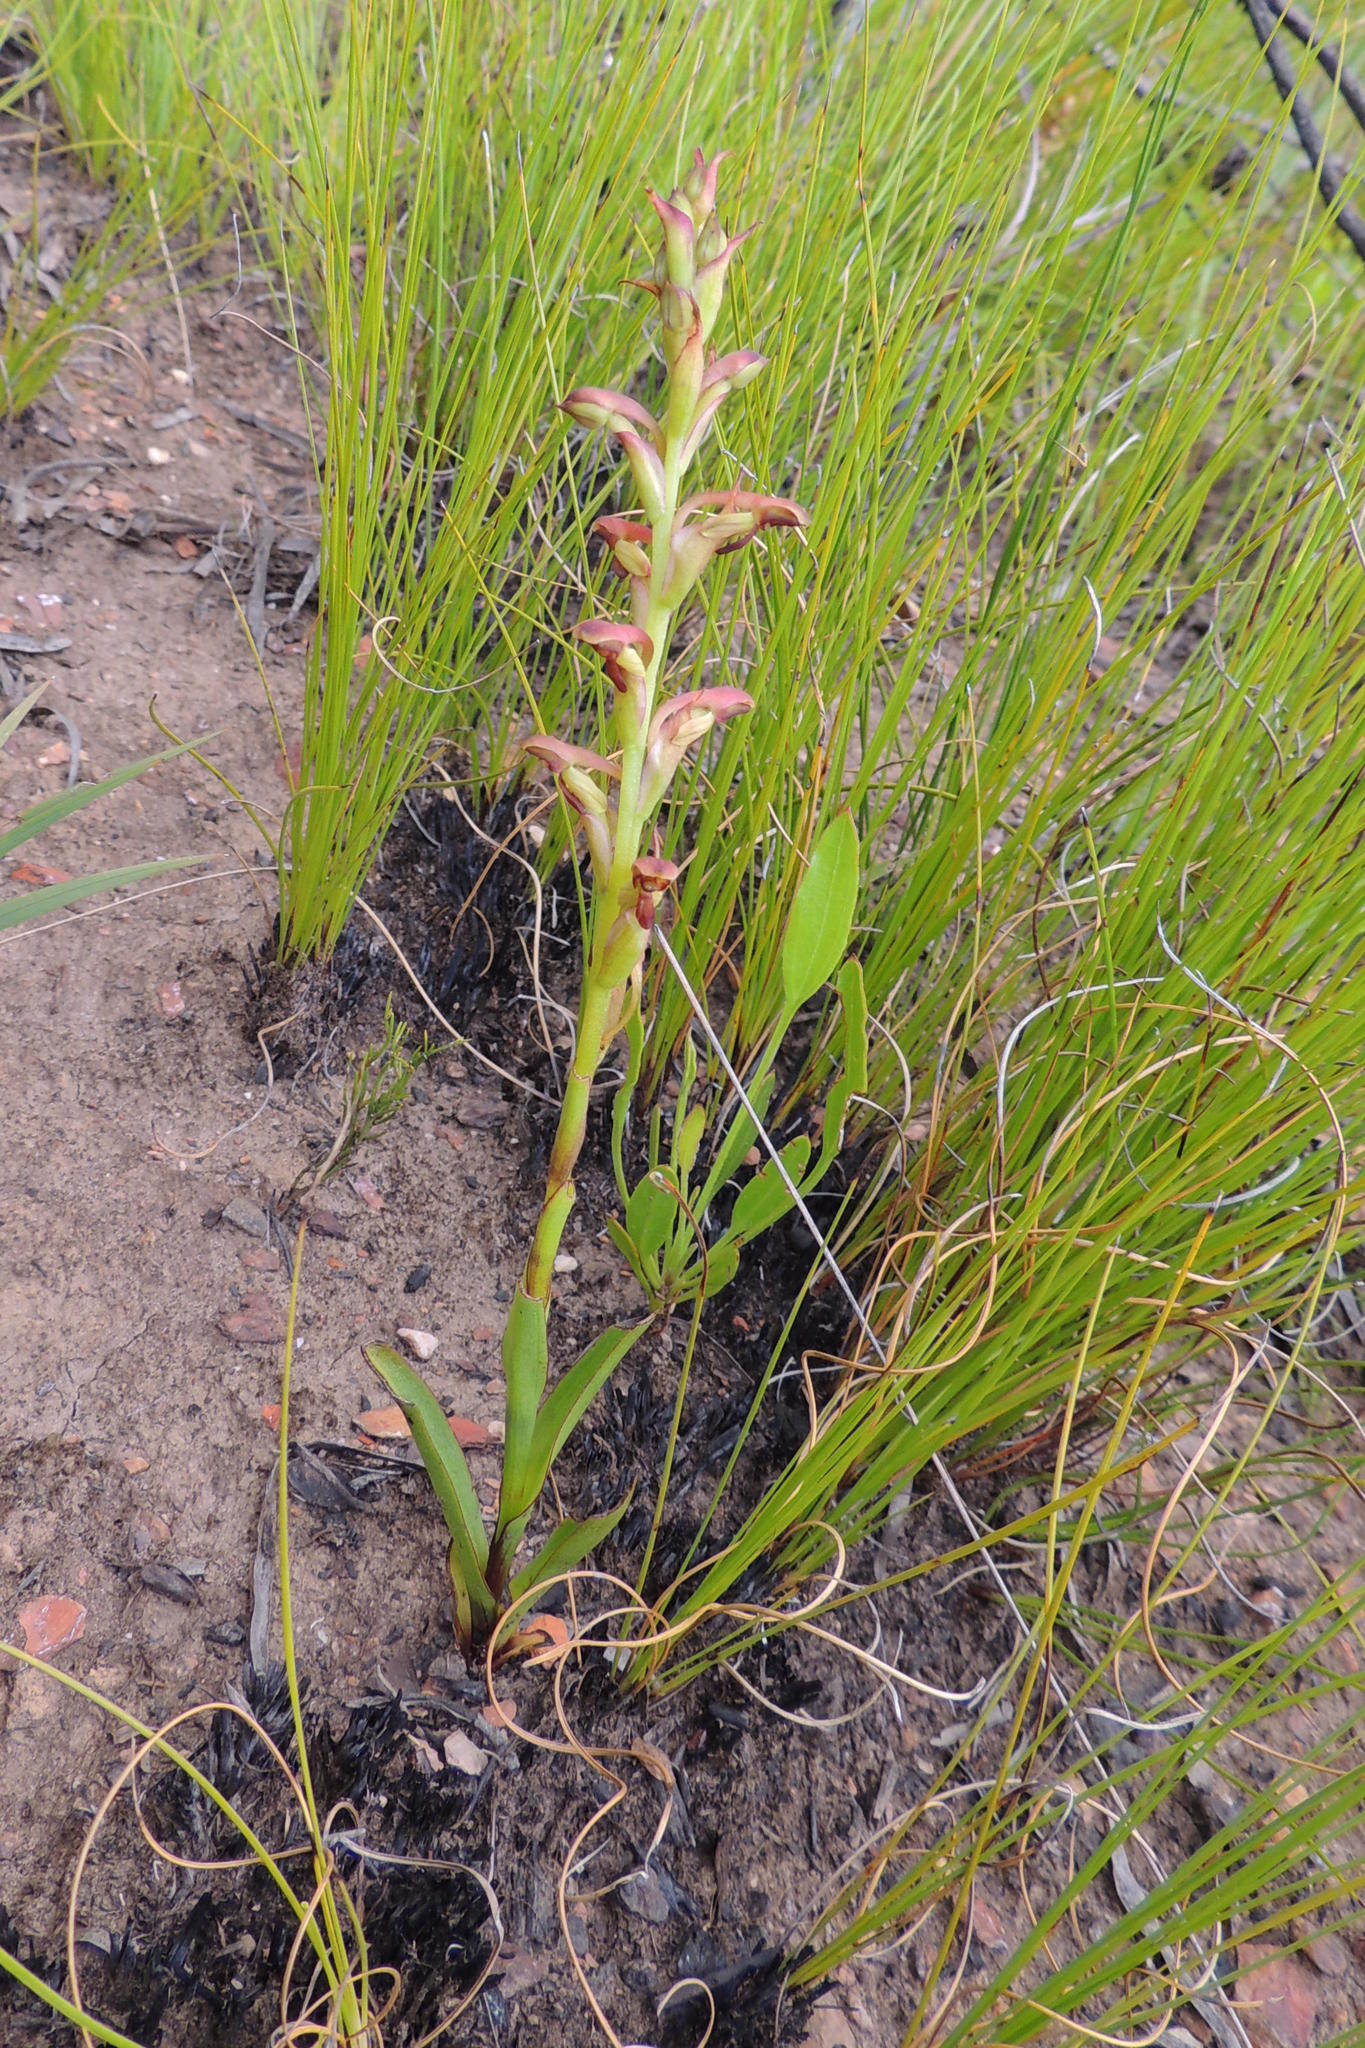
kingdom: Plantae
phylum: Tracheophyta
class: Liliopsida
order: Asparagales
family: Orchidaceae
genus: Disa
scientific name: Disa reticulata
